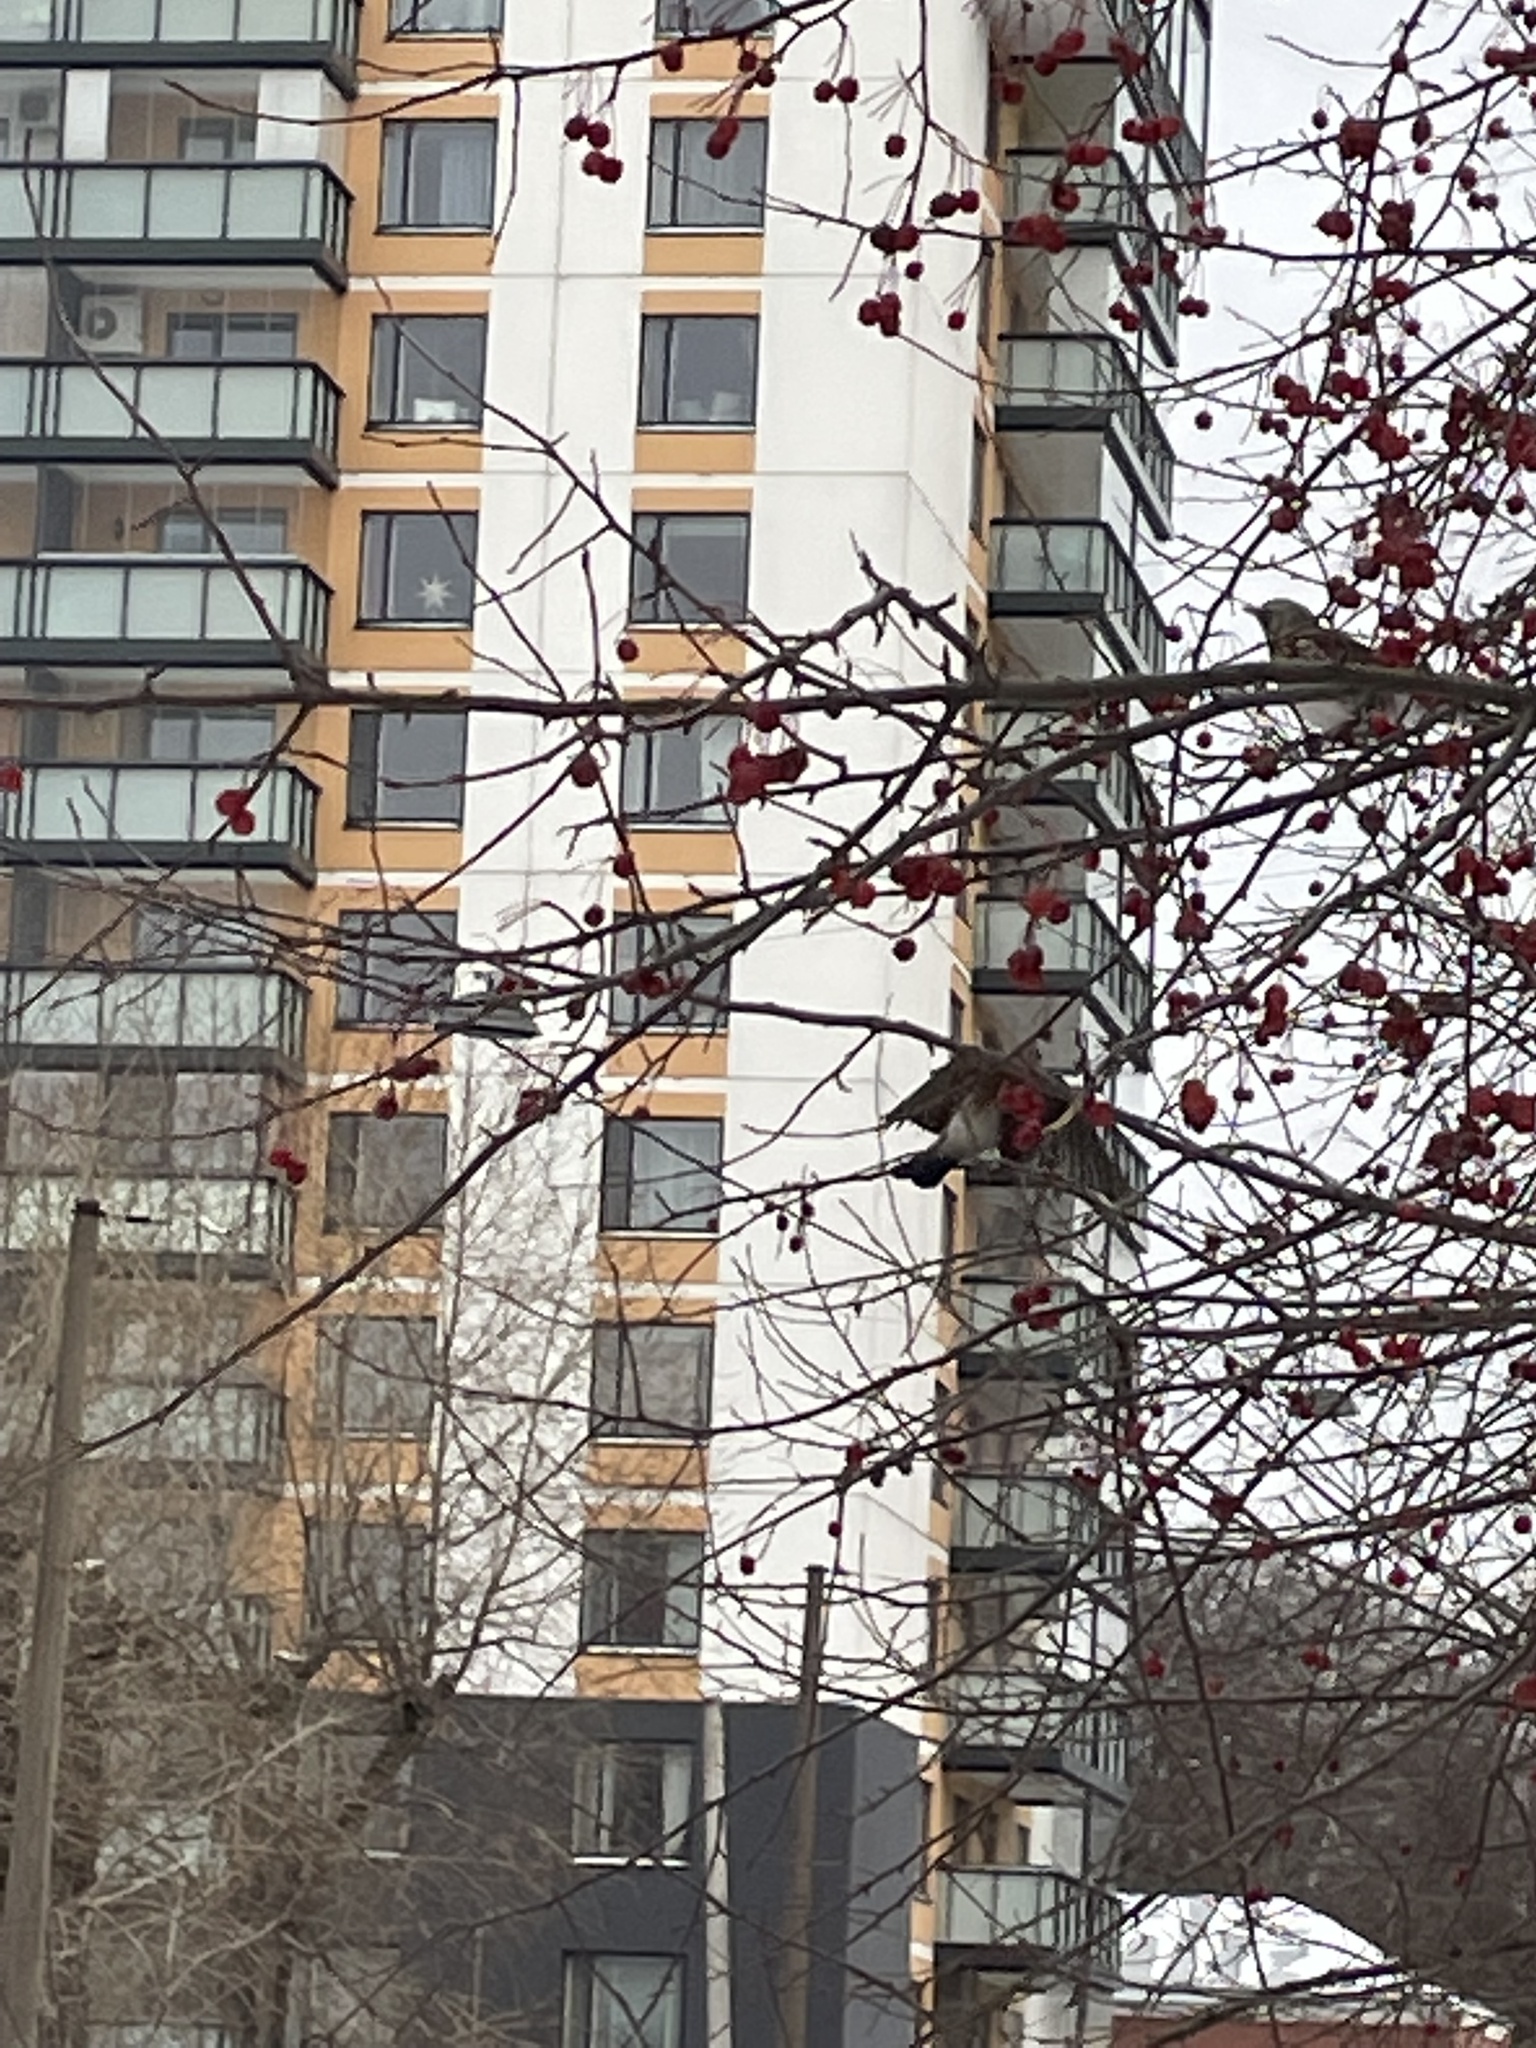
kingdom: Animalia
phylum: Chordata
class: Aves
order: Passeriformes
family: Turdidae
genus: Turdus
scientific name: Turdus pilaris
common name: Fieldfare
